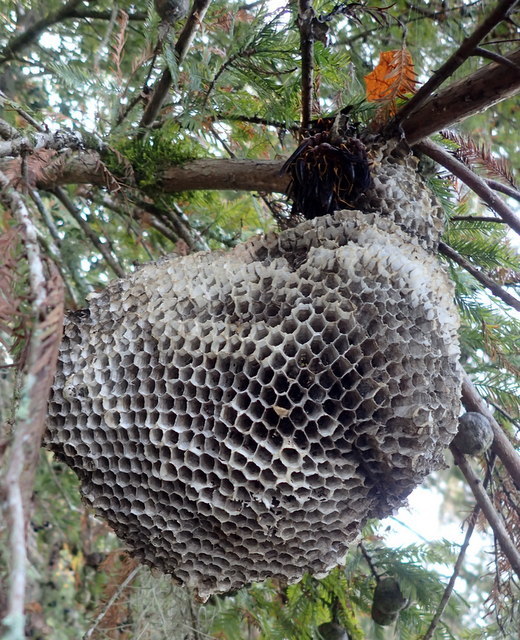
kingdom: Animalia
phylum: Arthropoda
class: Insecta
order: Hymenoptera
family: Eumenidae
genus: Polistes
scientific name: Polistes annularis
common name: Ringed paper wasp
